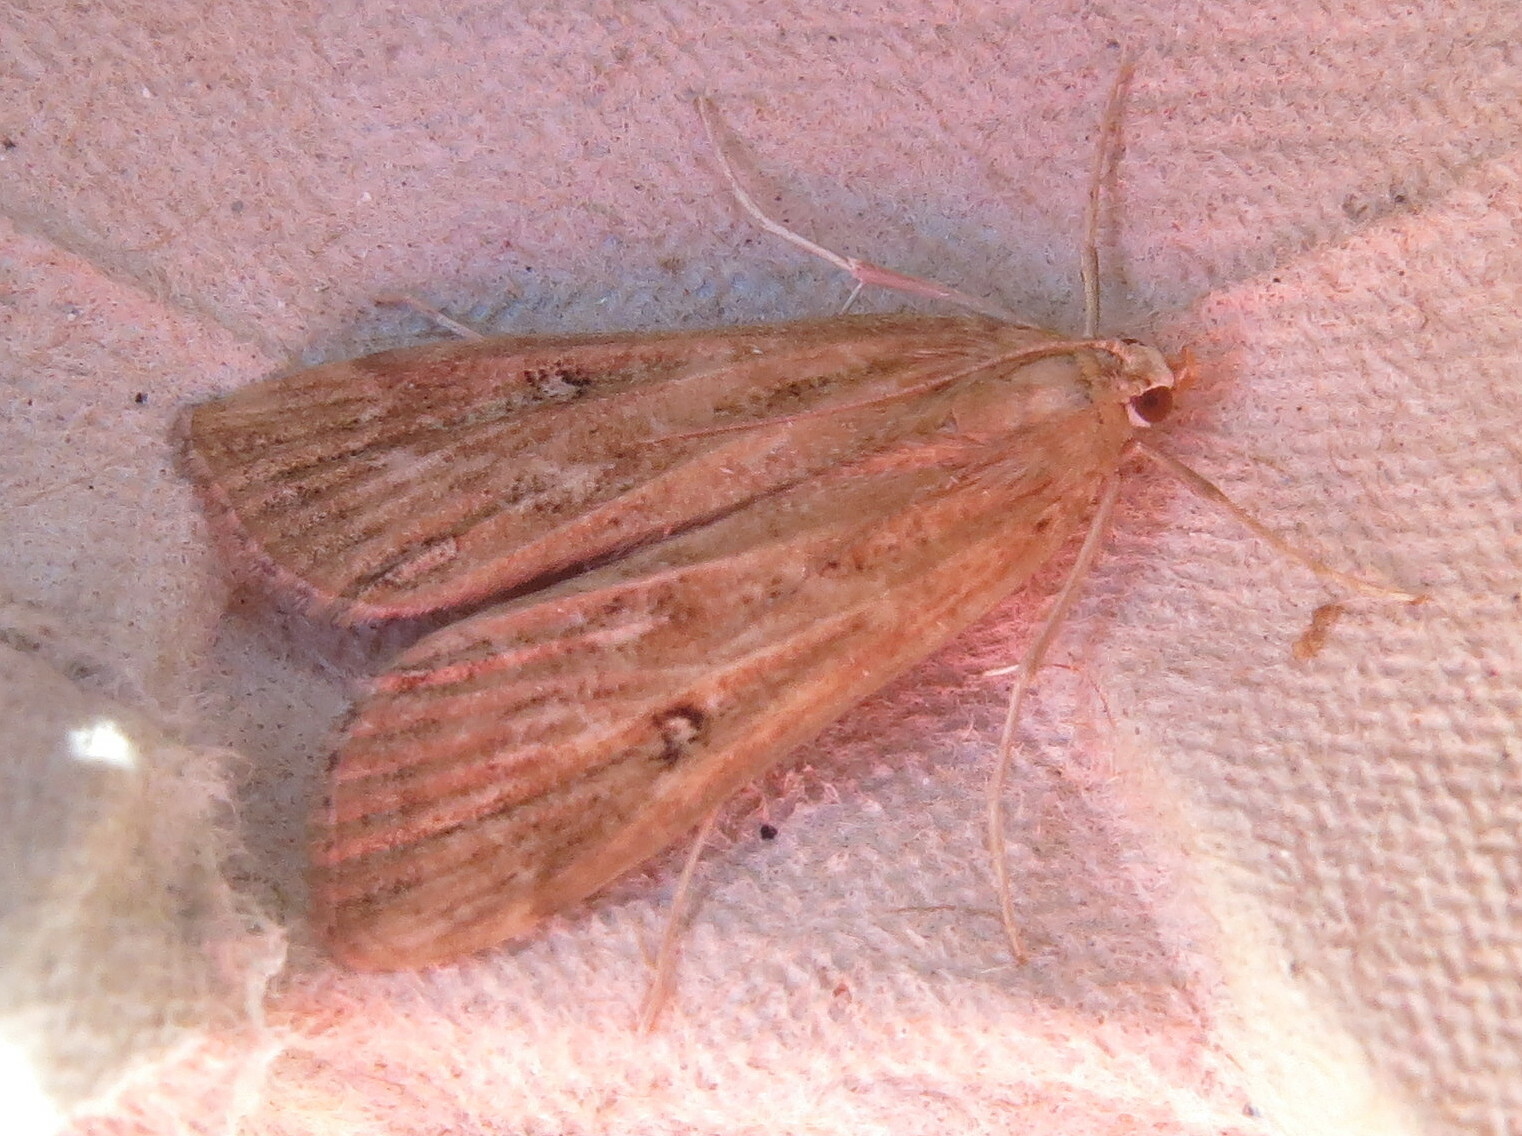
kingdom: Animalia
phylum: Arthropoda
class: Insecta
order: Lepidoptera
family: Crambidae
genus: Parapoynx
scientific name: Parapoynx stratiotata
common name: Ringed china-mark
